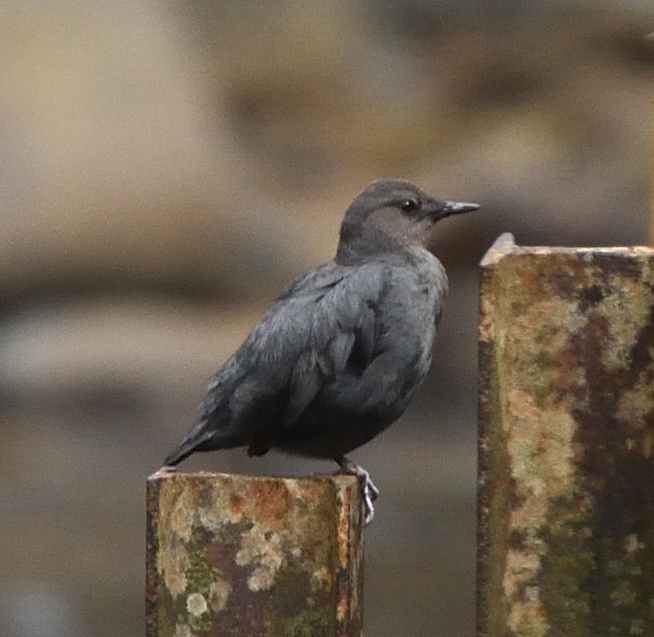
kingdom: Animalia
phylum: Chordata
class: Aves
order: Passeriformes
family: Cinclidae
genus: Cinclus
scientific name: Cinclus mexicanus
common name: American dipper
